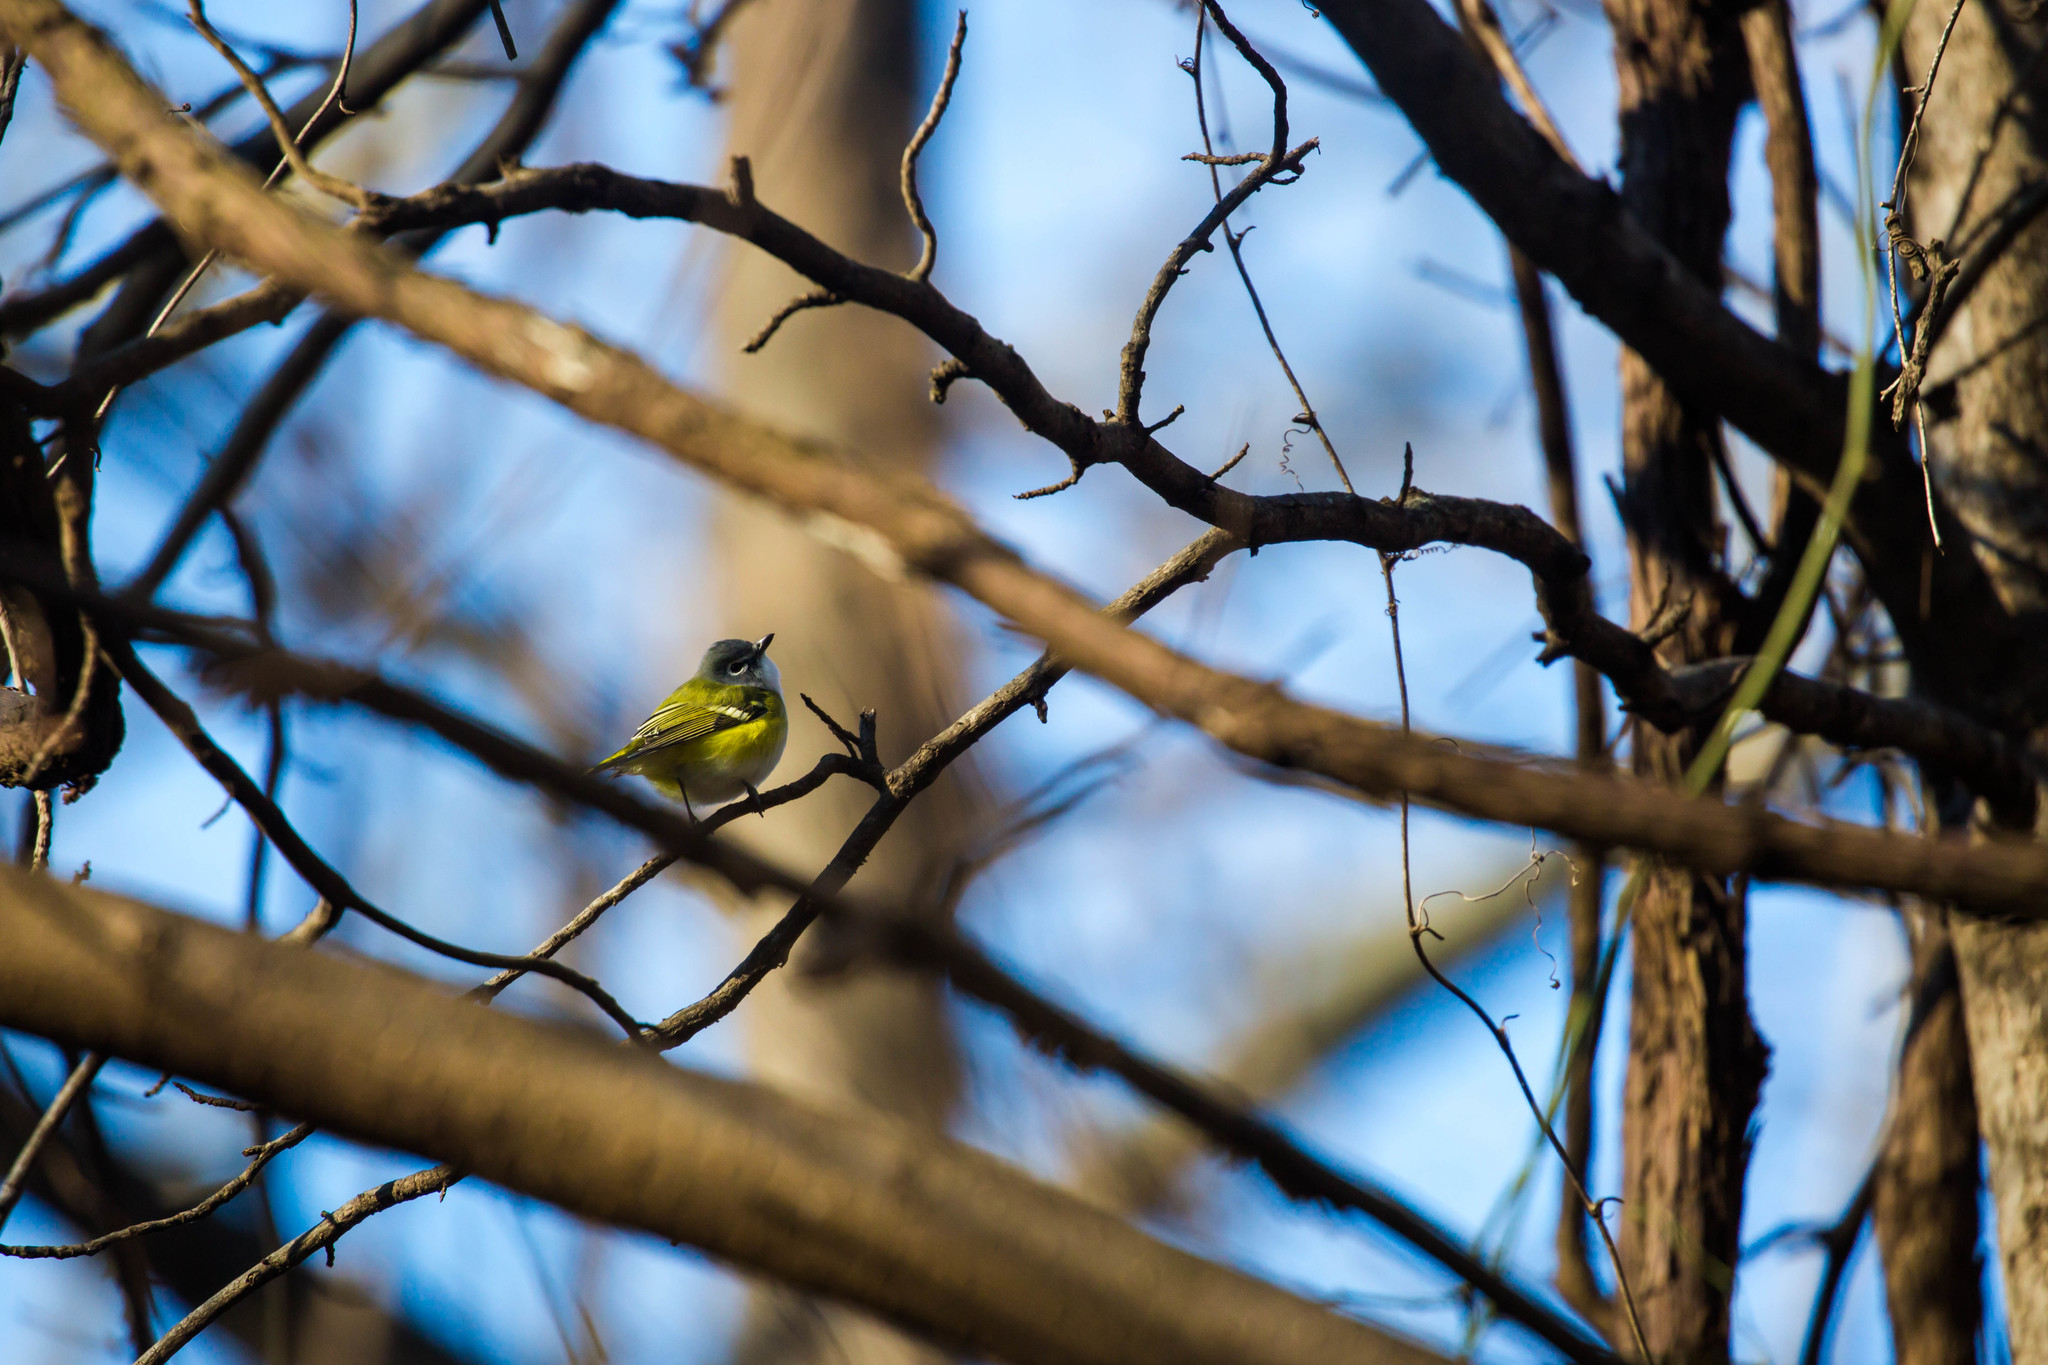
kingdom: Animalia
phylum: Chordata
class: Aves
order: Passeriformes
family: Vireonidae
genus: Vireo
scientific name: Vireo solitarius
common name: Blue-headed vireo
